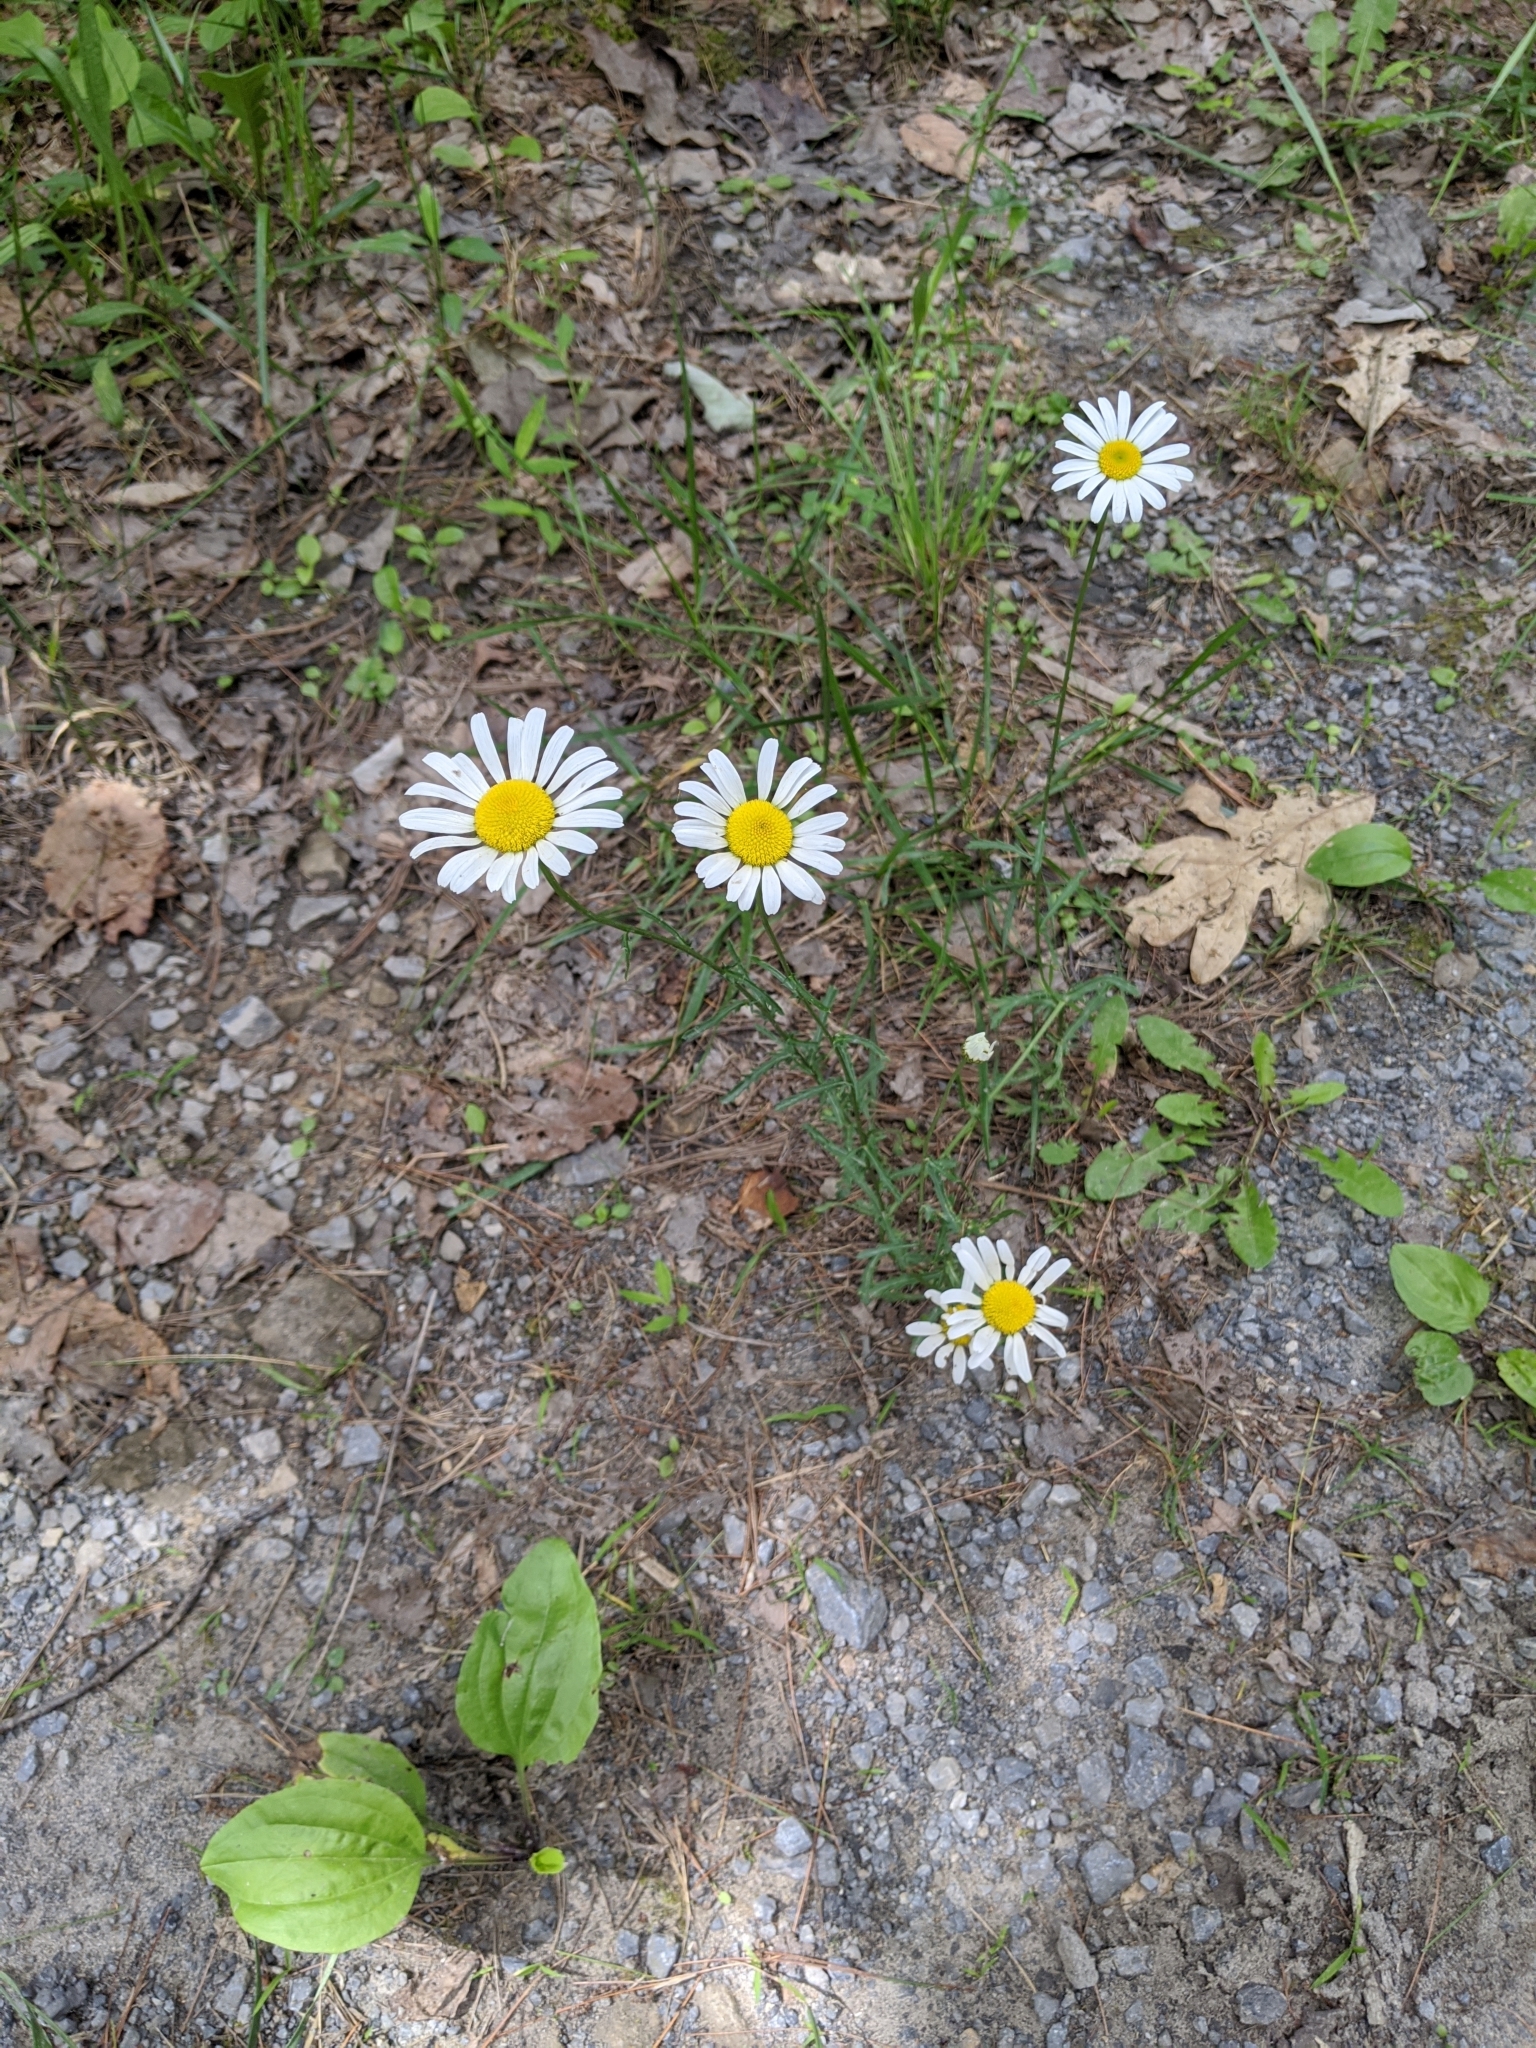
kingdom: Plantae
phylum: Tracheophyta
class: Magnoliopsida
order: Asterales
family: Asteraceae
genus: Leucanthemum
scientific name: Leucanthemum vulgare
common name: Oxeye daisy
